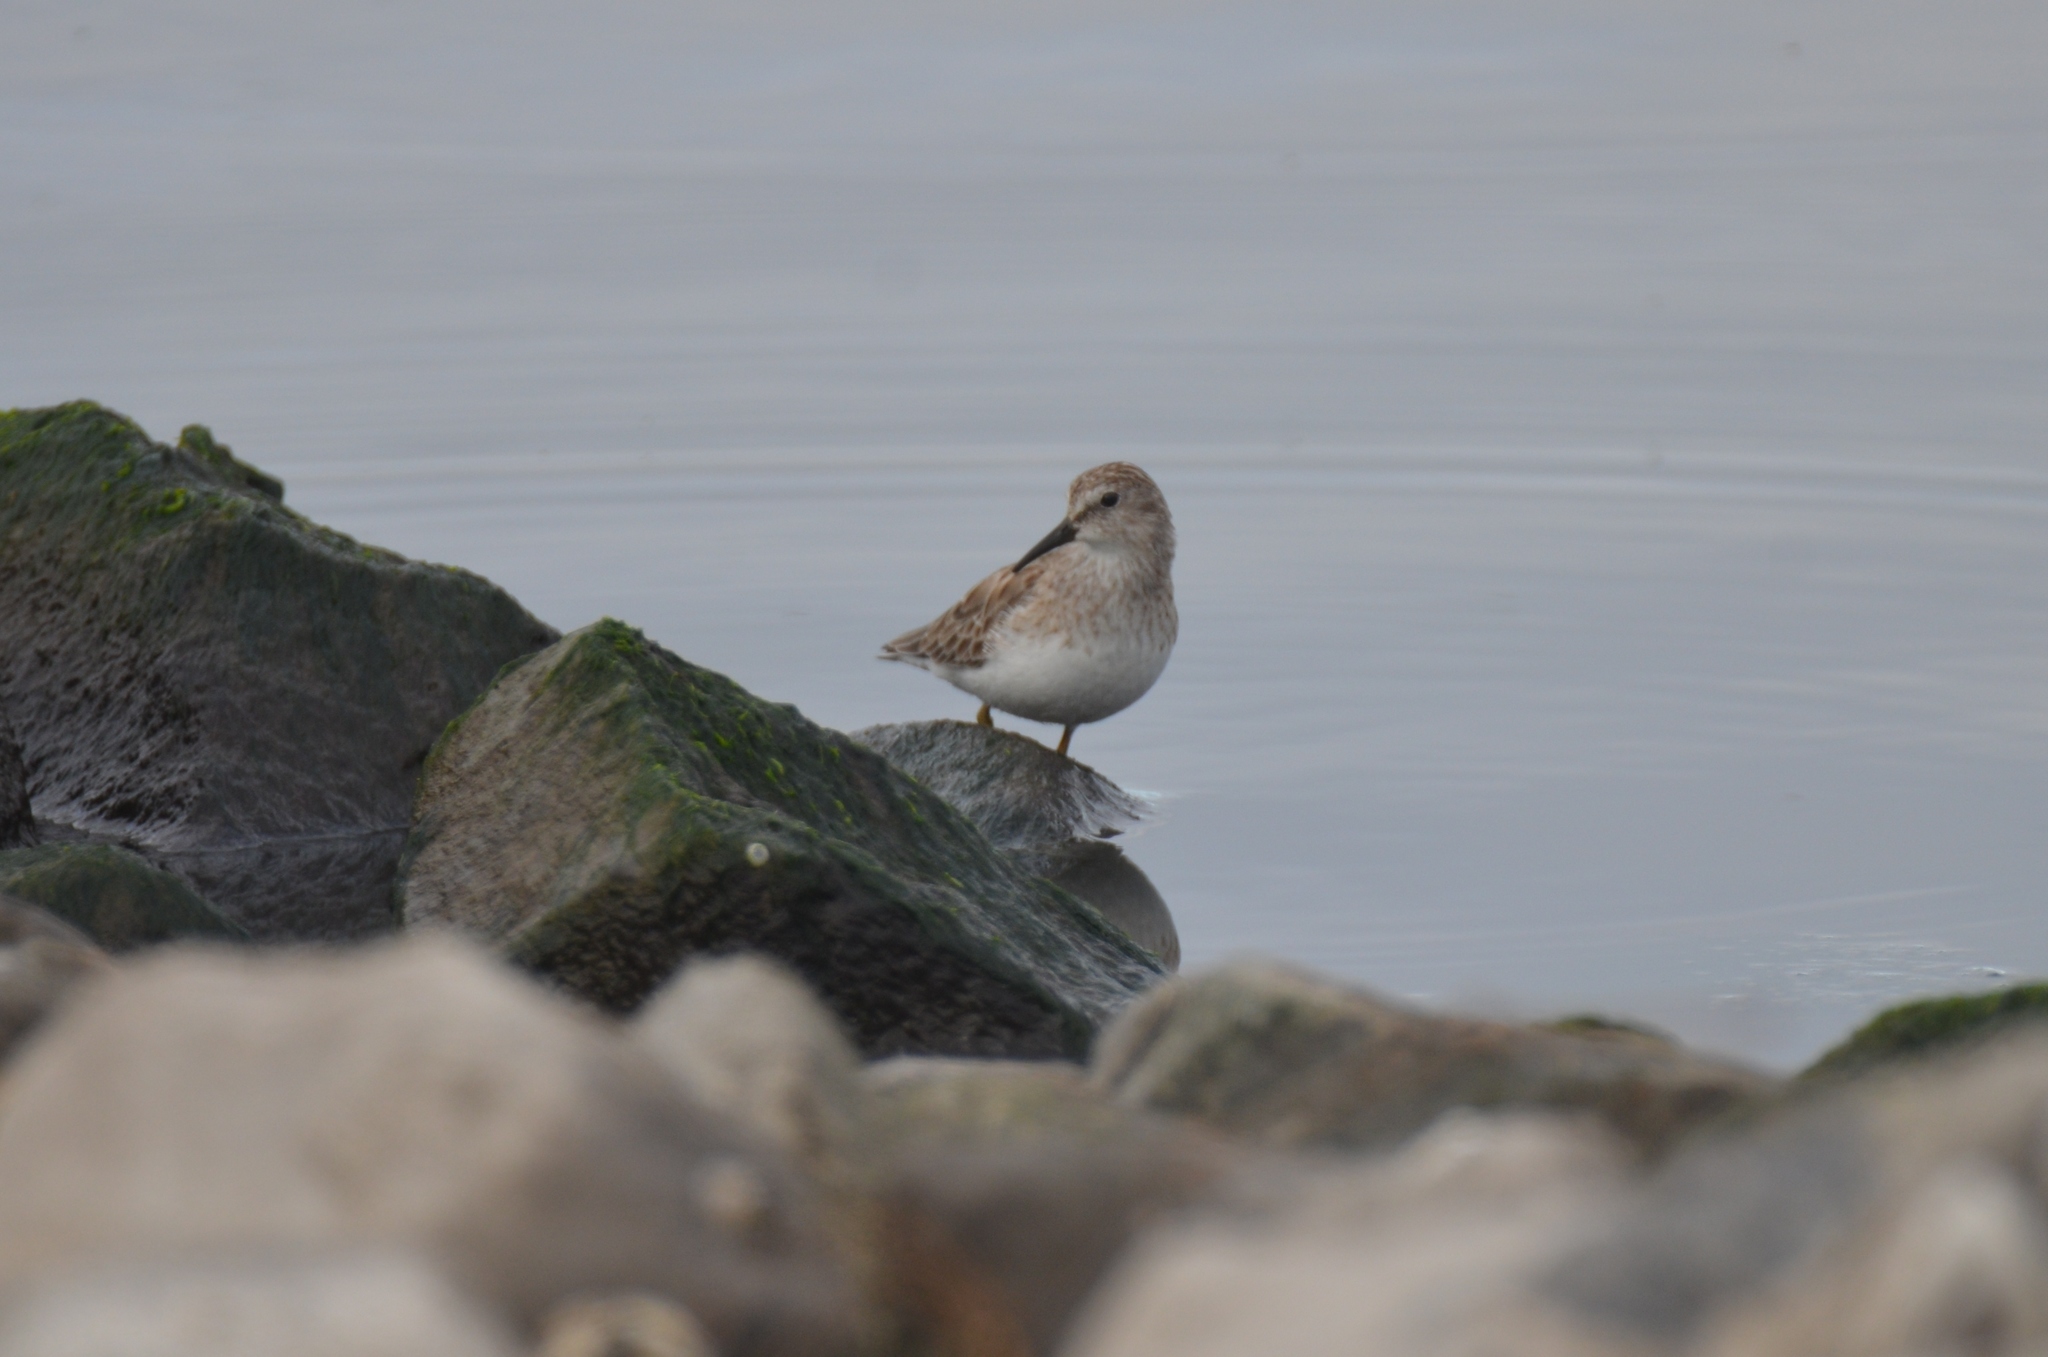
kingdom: Animalia
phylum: Chordata
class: Aves
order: Charadriiformes
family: Scolopacidae
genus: Calidris
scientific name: Calidris minutilla
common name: Least sandpiper
